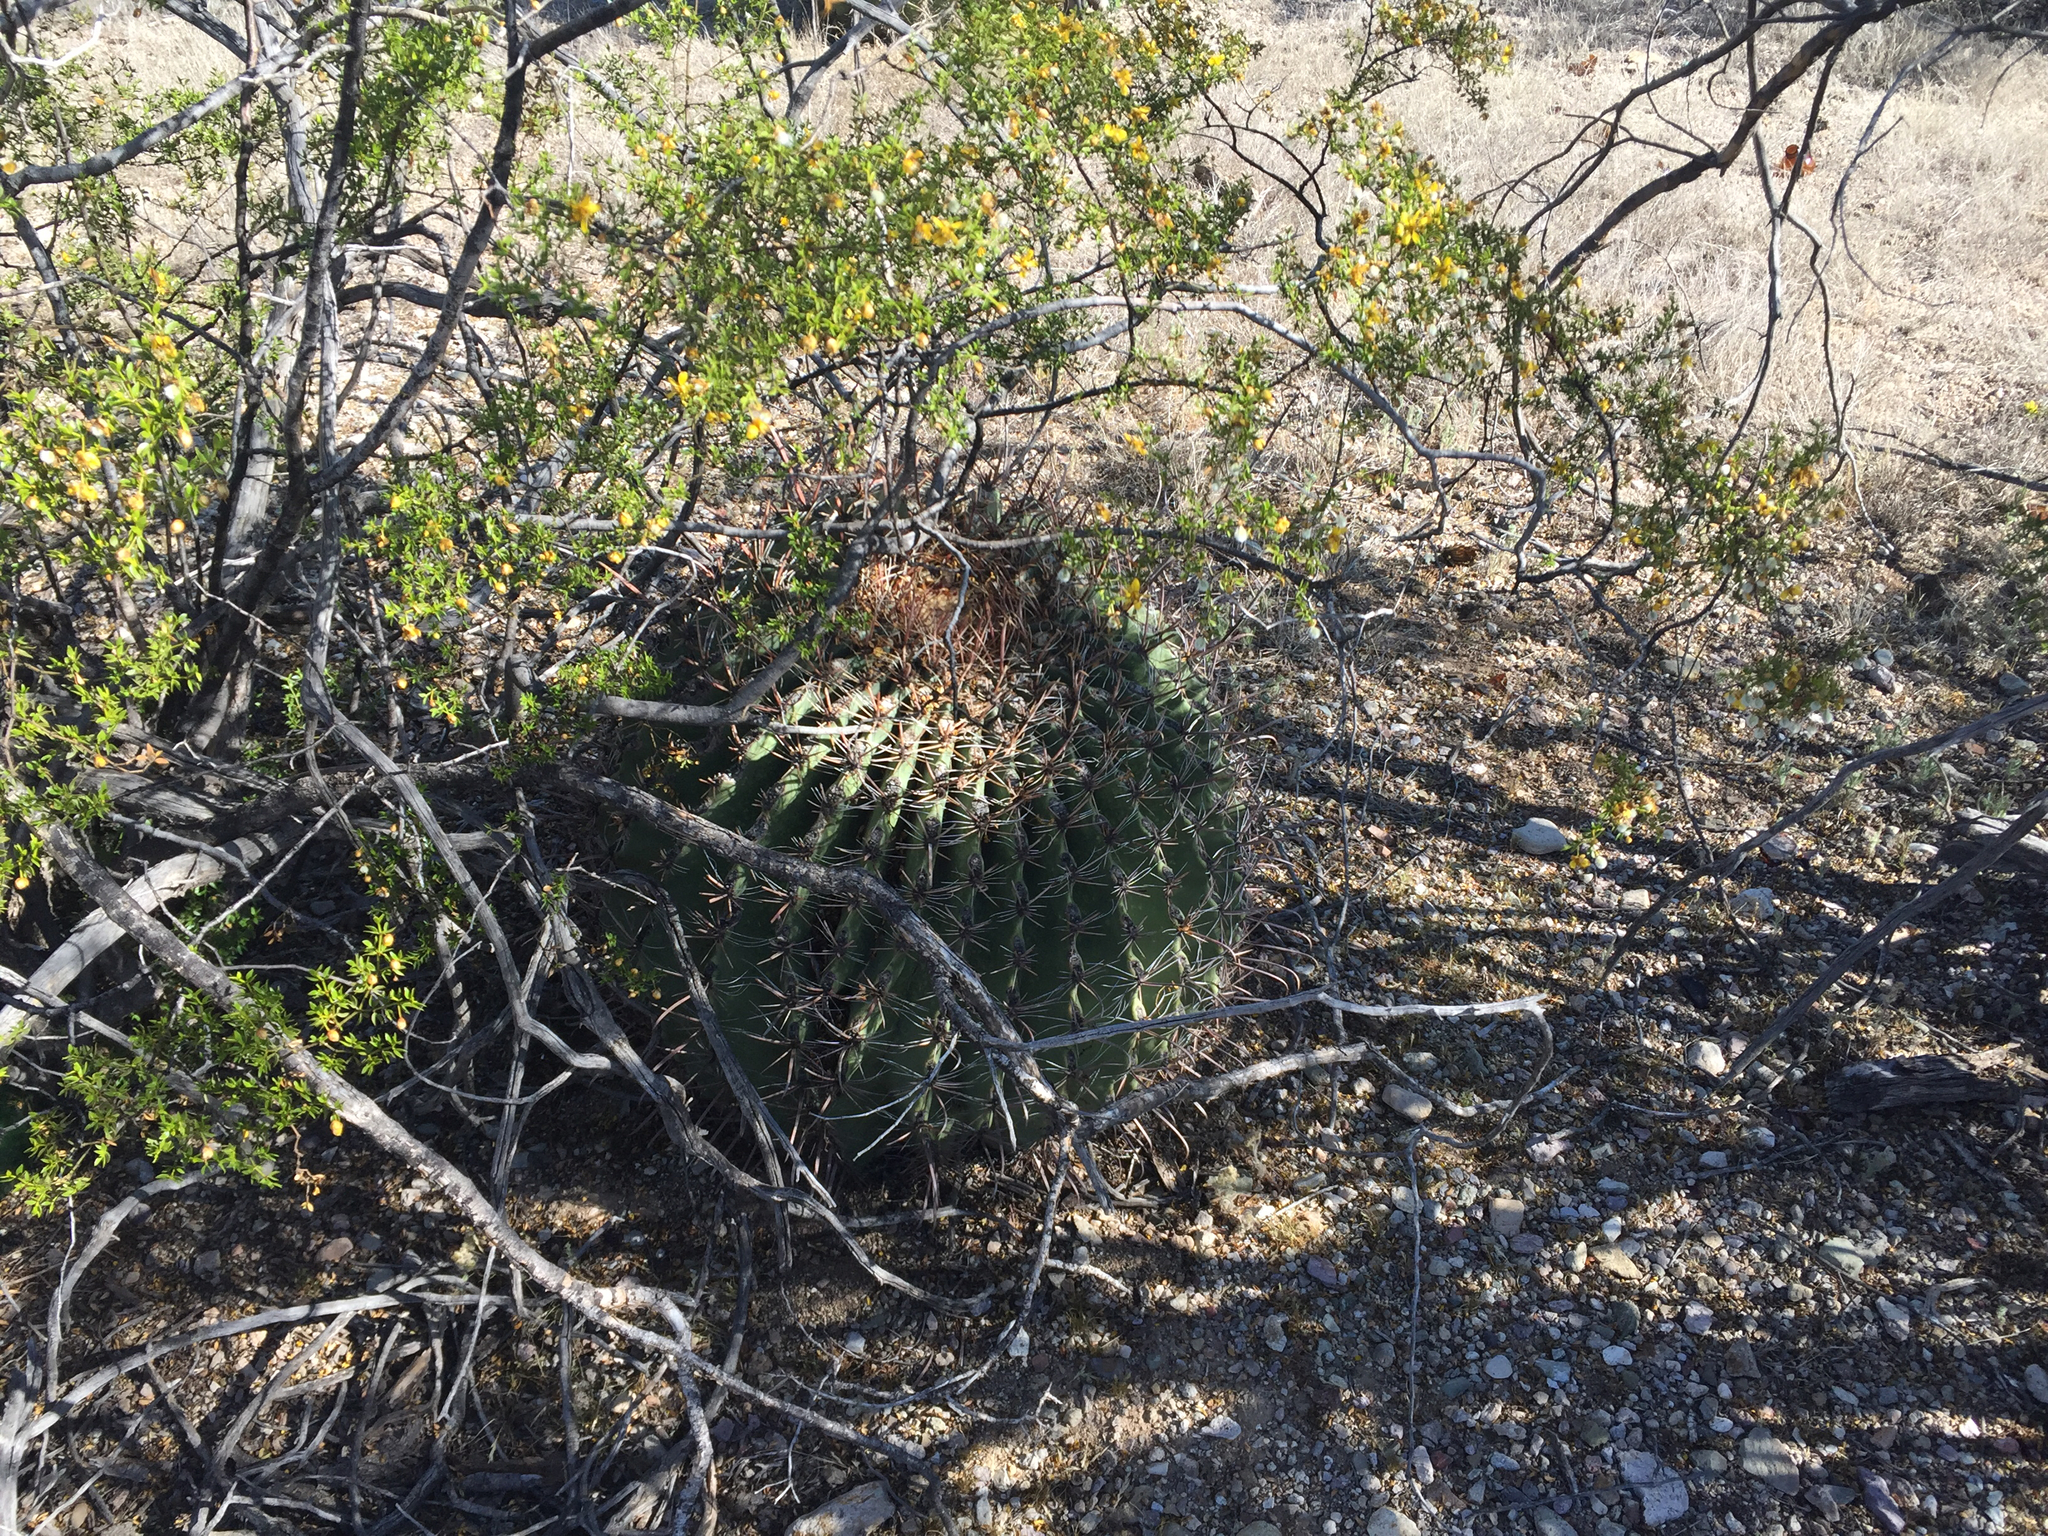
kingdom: Plantae
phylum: Tracheophyta
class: Magnoliopsida
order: Caryophyllales
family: Cactaceae
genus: Ferocactus
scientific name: Ferocactus wislizeni
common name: Candy barrel cactus
